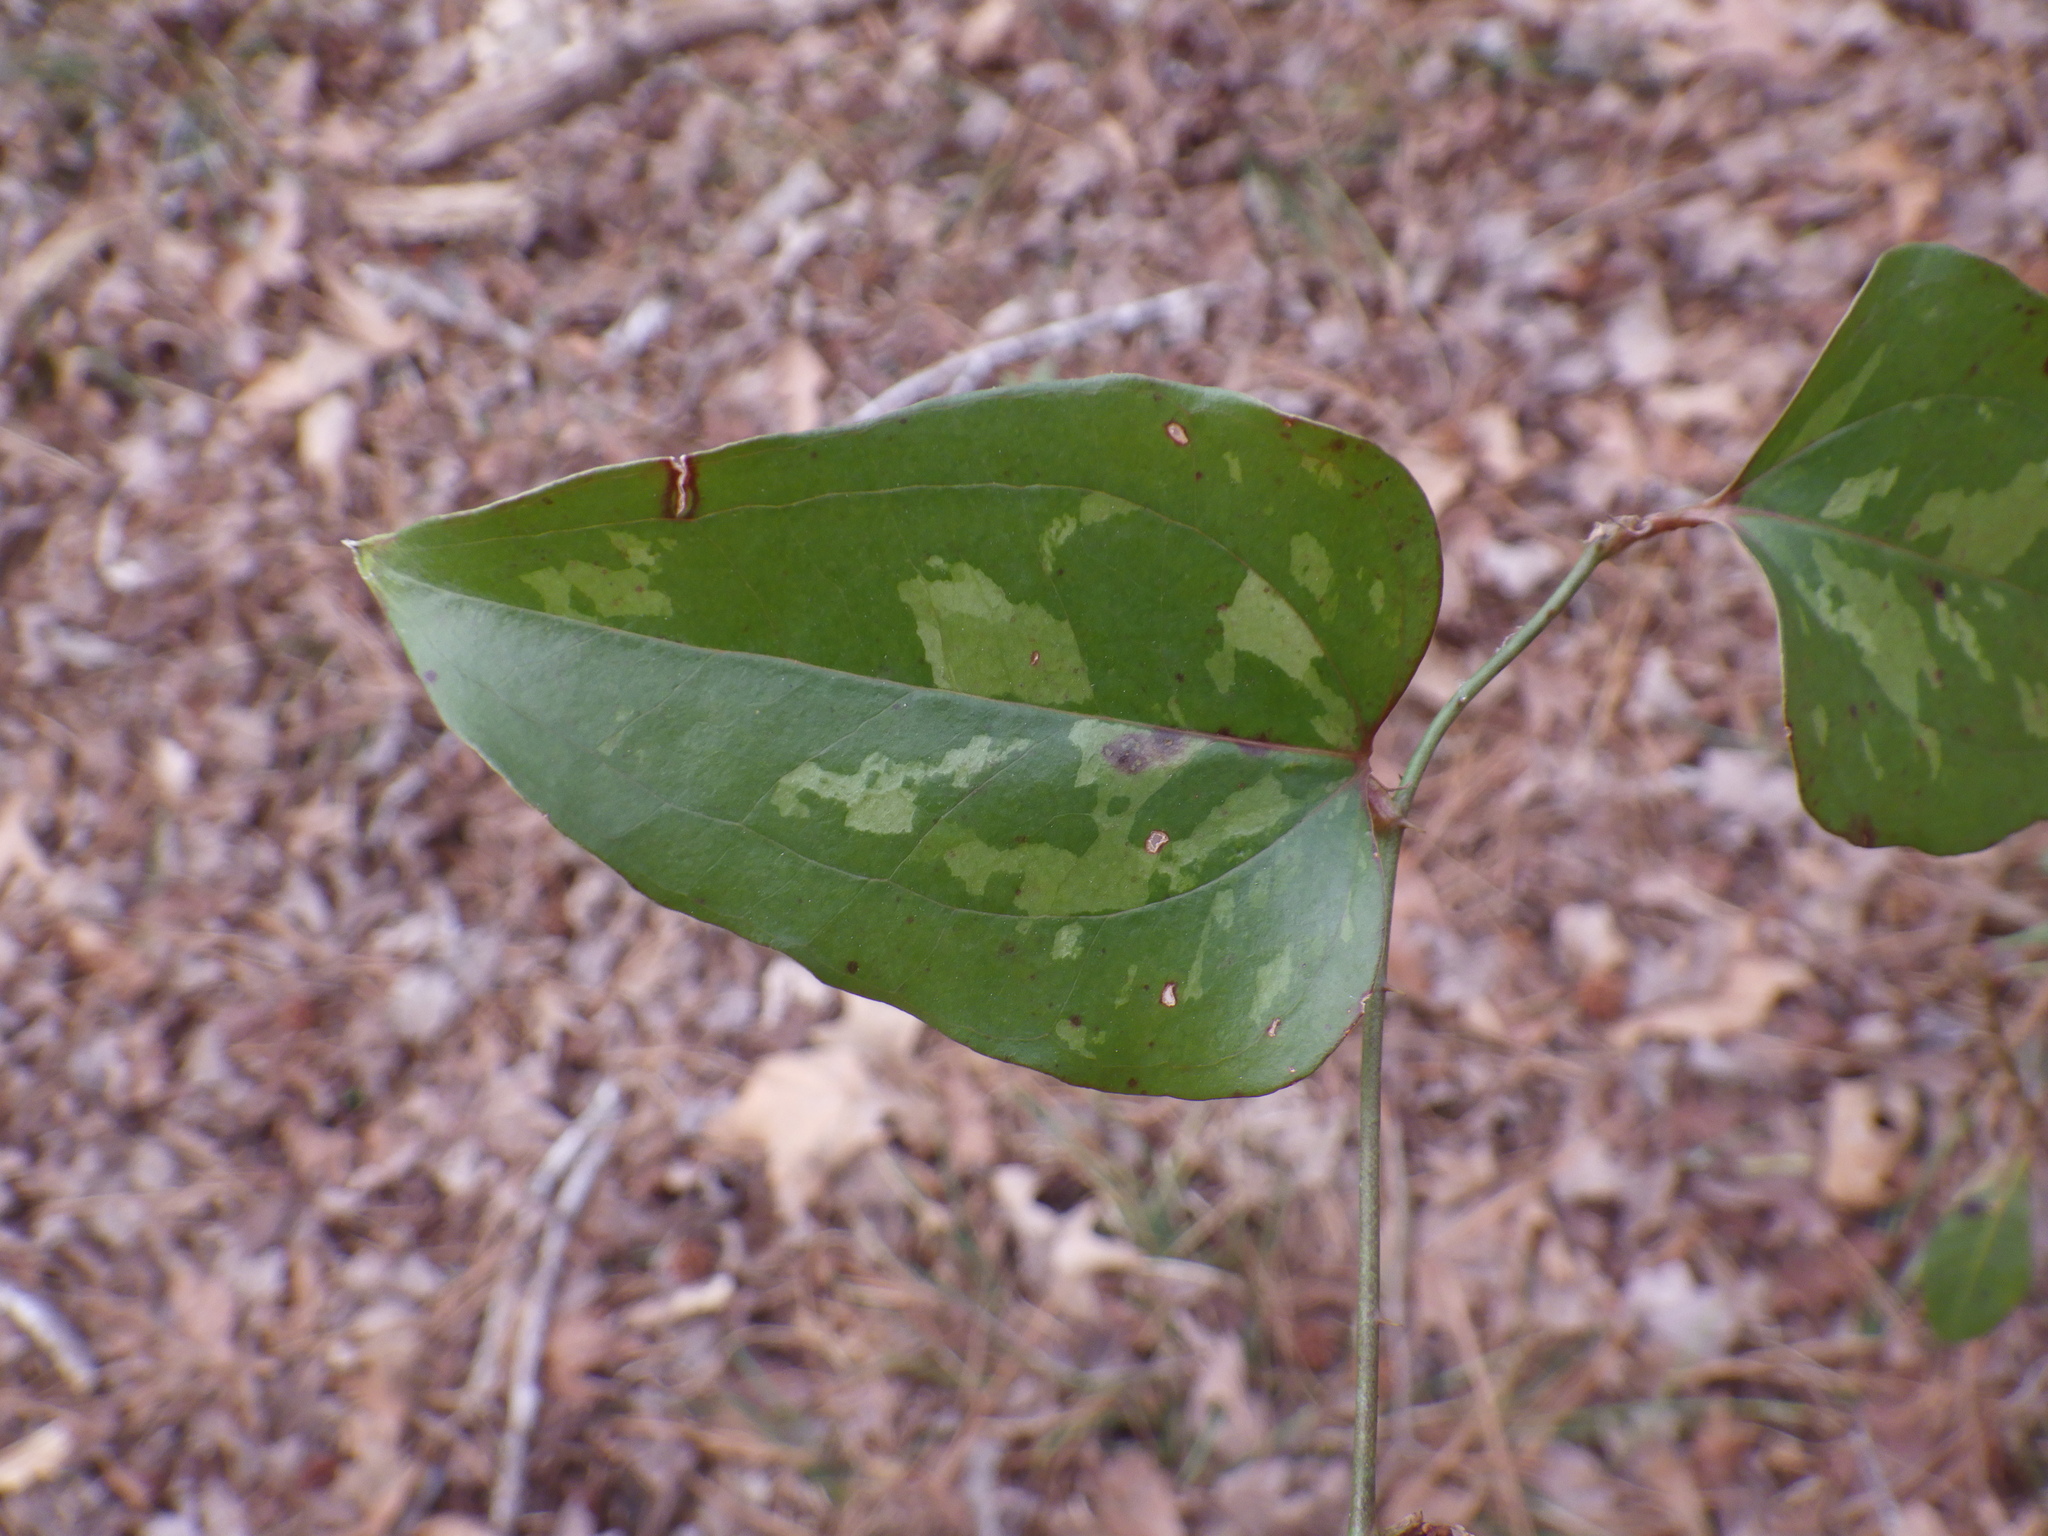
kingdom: Plantae
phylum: Tracheophyta
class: Liliopsida
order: Liliales
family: Smilacaceae
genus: Smilax
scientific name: Smilax glauca
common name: Cat greenbrier
